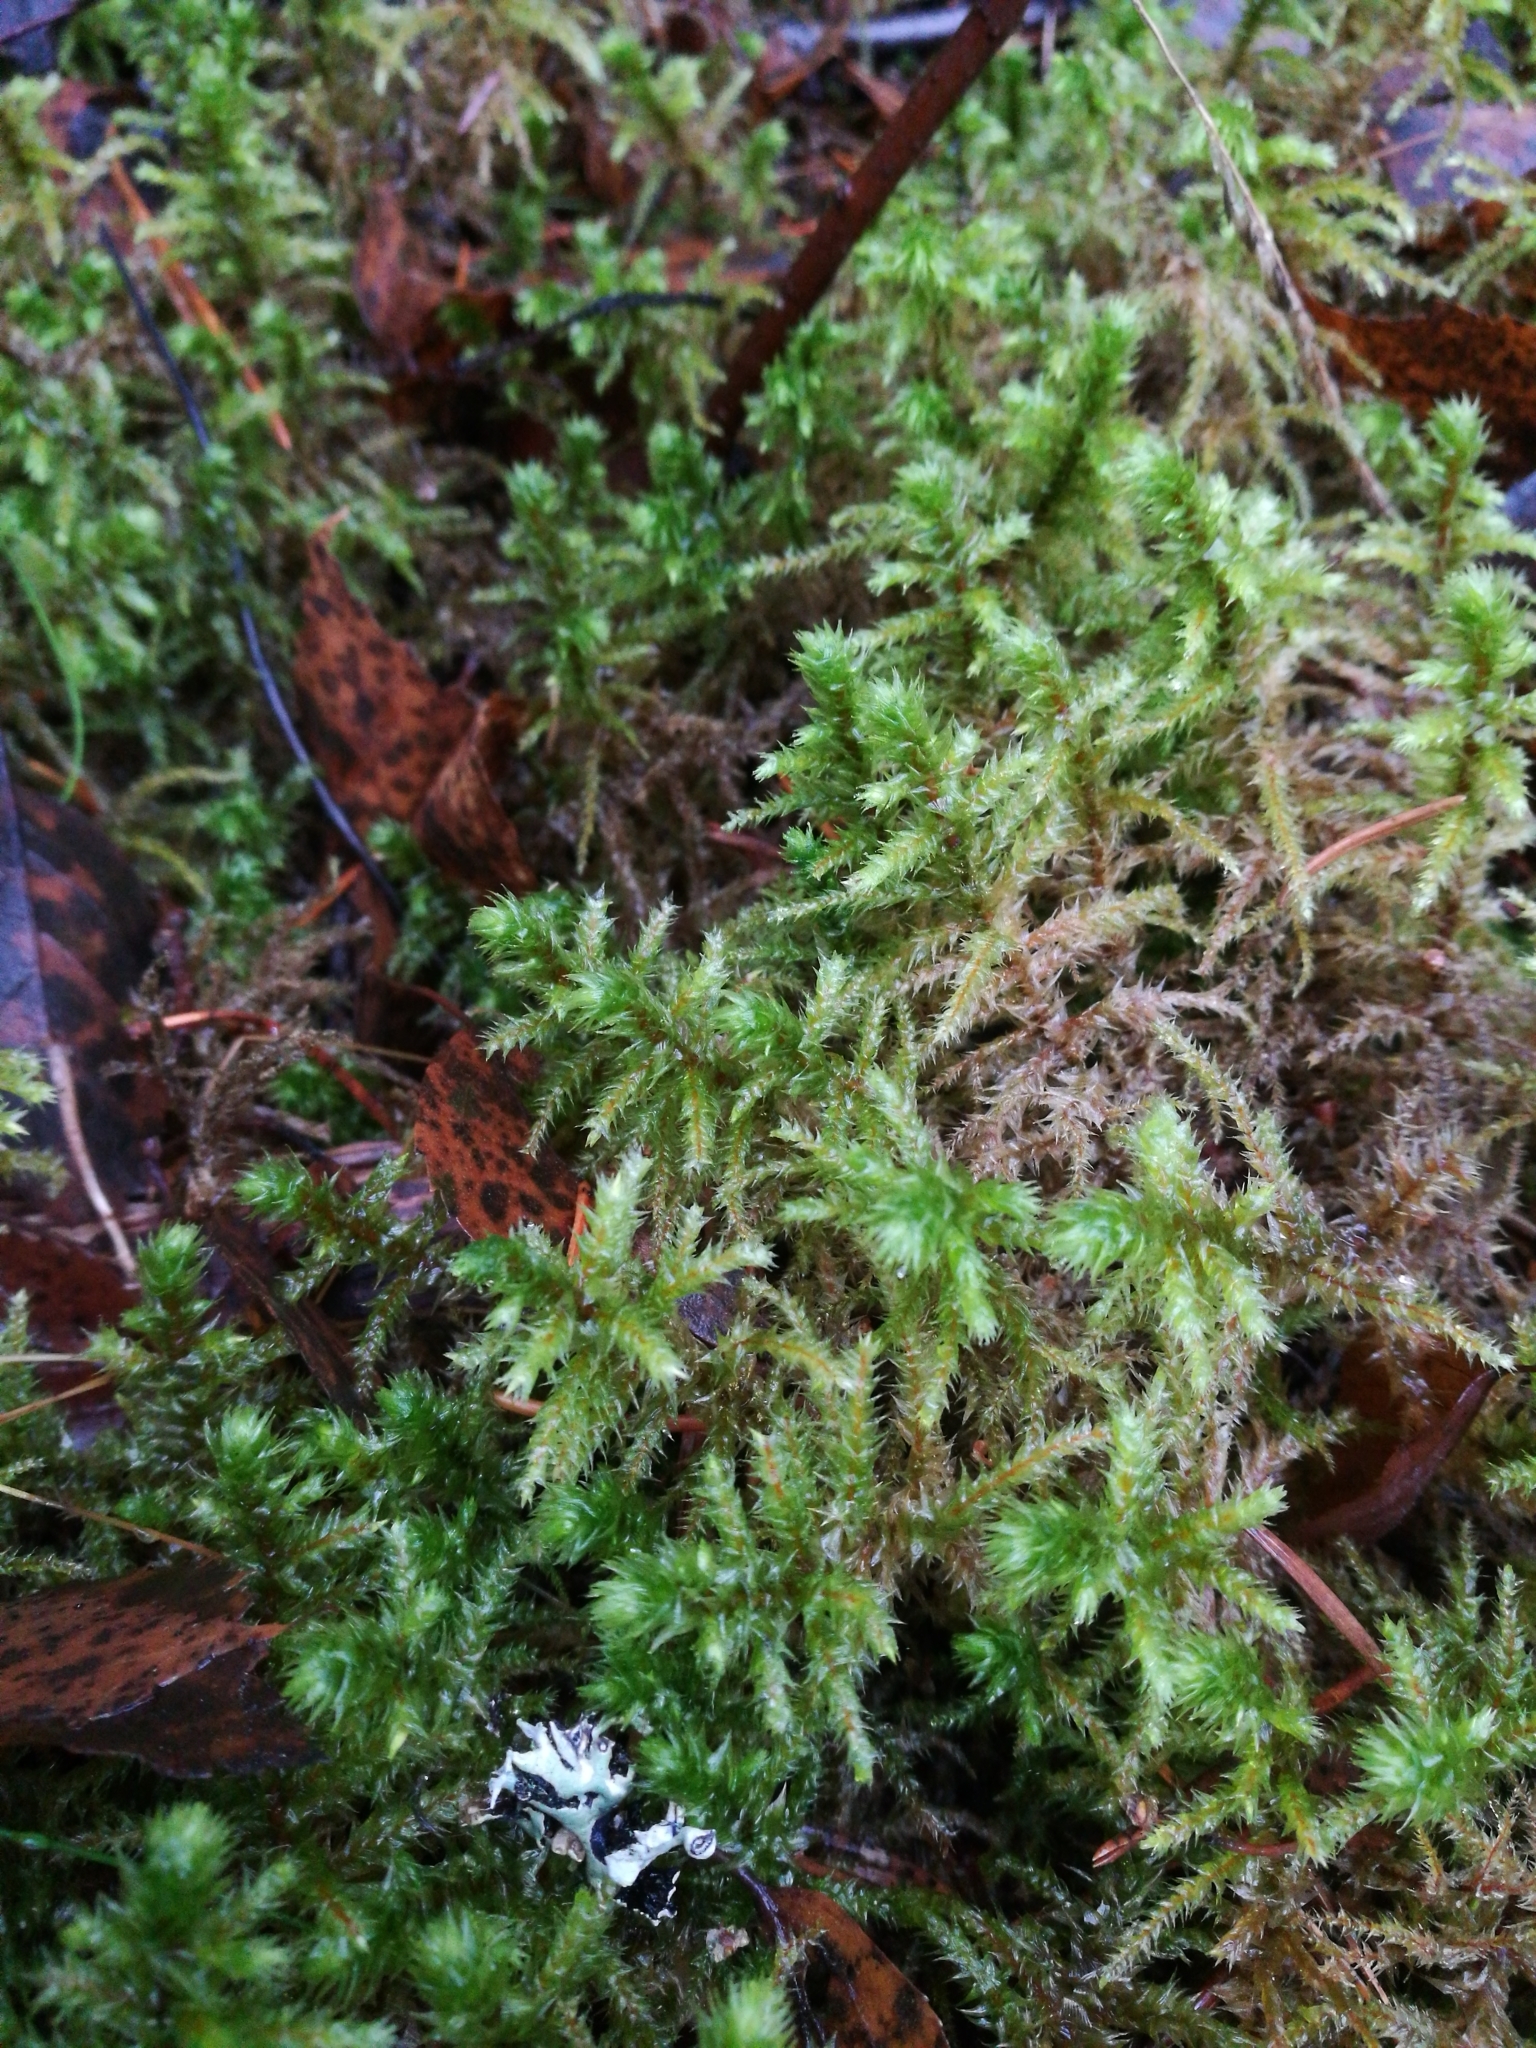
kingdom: Plantae
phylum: Bryophyta
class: Bryopsida
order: Hypnales
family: Hylocomiaceae
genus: Hylocomiadelphus
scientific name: Hylocomiadelphus triquetrus
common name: Rough goose neck moss
